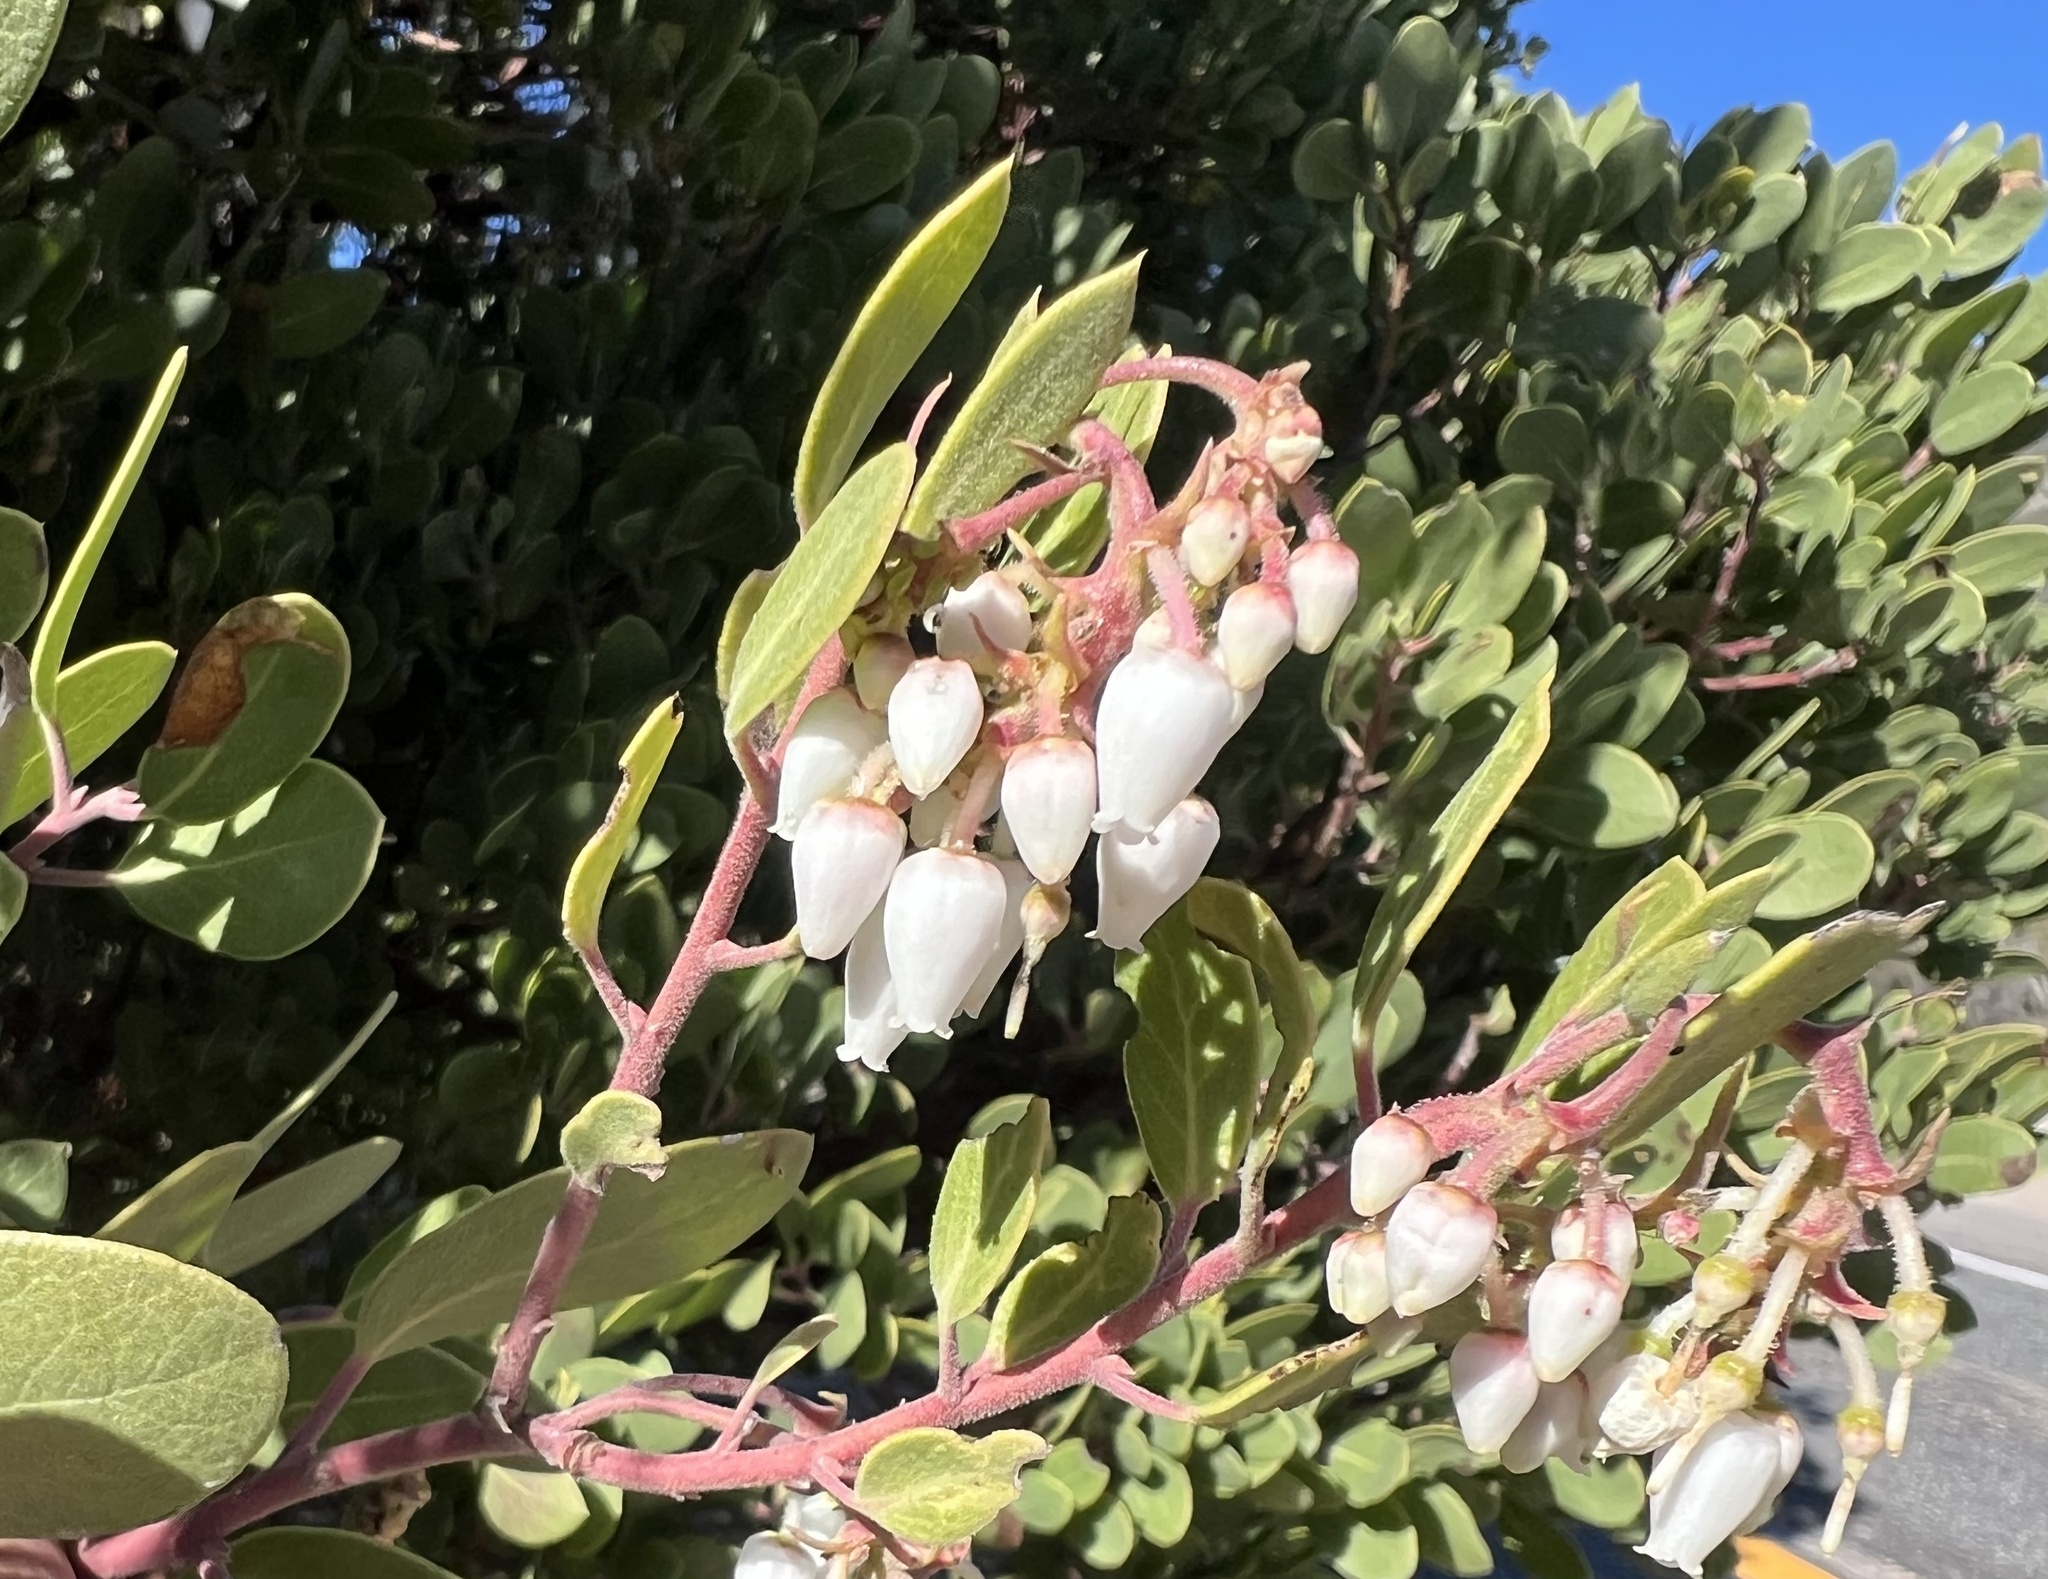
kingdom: Plantae
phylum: Tracheophyta
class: Magnoliopsida
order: Ericales
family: Ericaceae
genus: Arctostaphylos
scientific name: Arctostaphylos glauca
